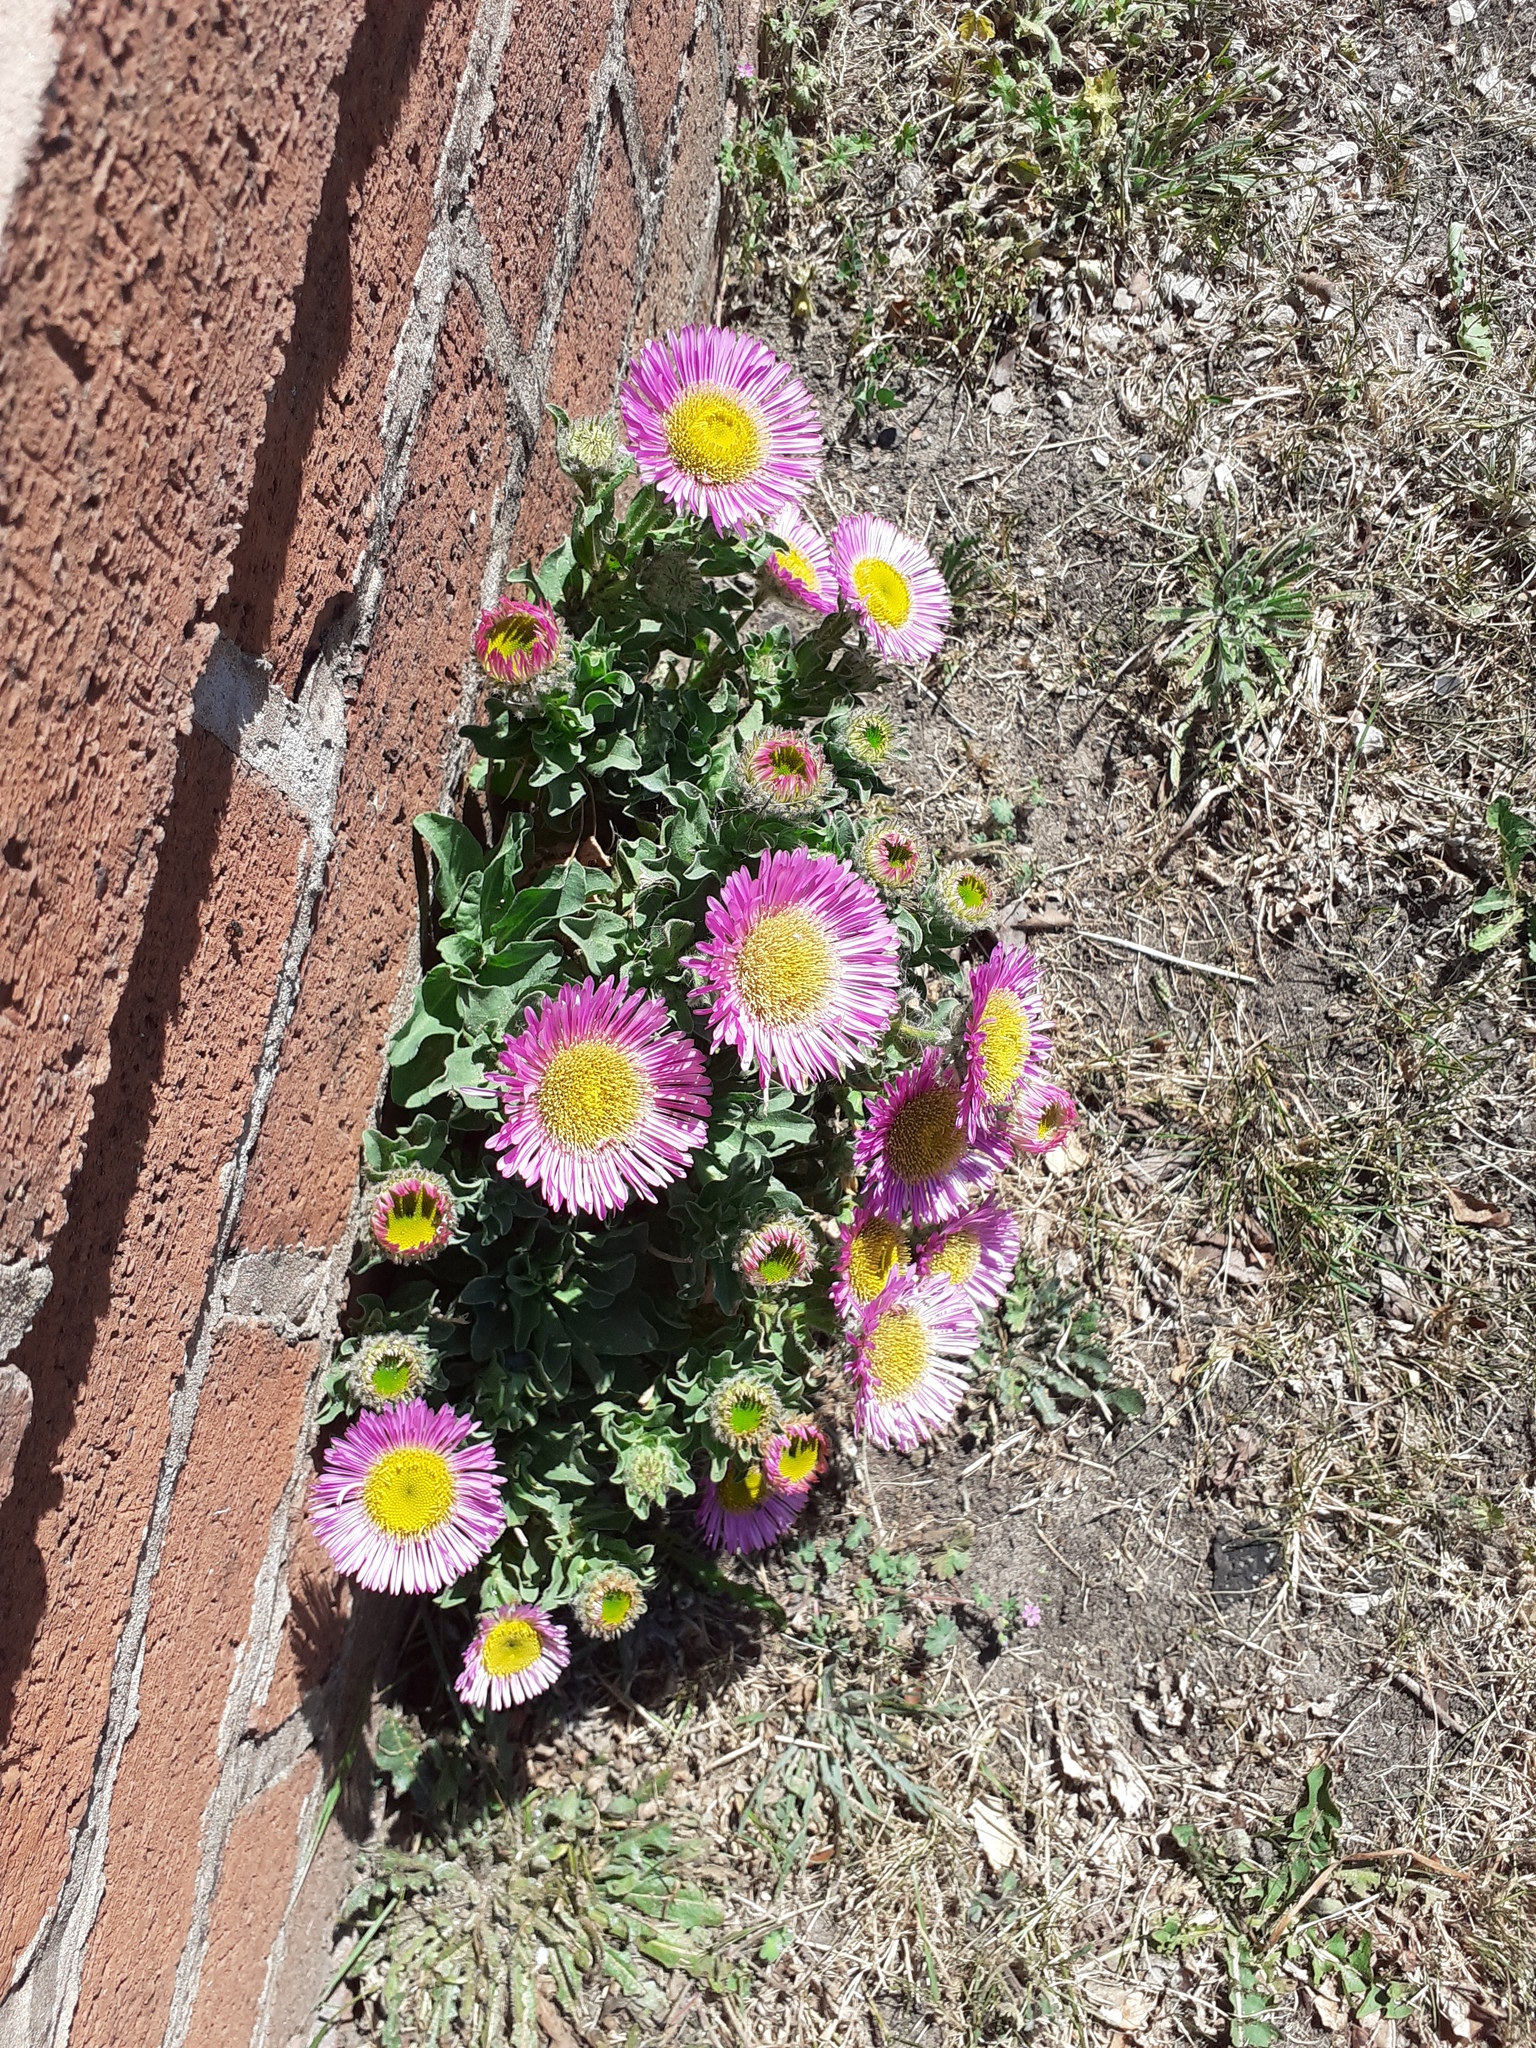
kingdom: Plantae
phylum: Tracheophyta
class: Magnoliopsida
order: Asterales
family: Asteraceae
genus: Erigeron
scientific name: Erigeron glaucus
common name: Seaside daisy
